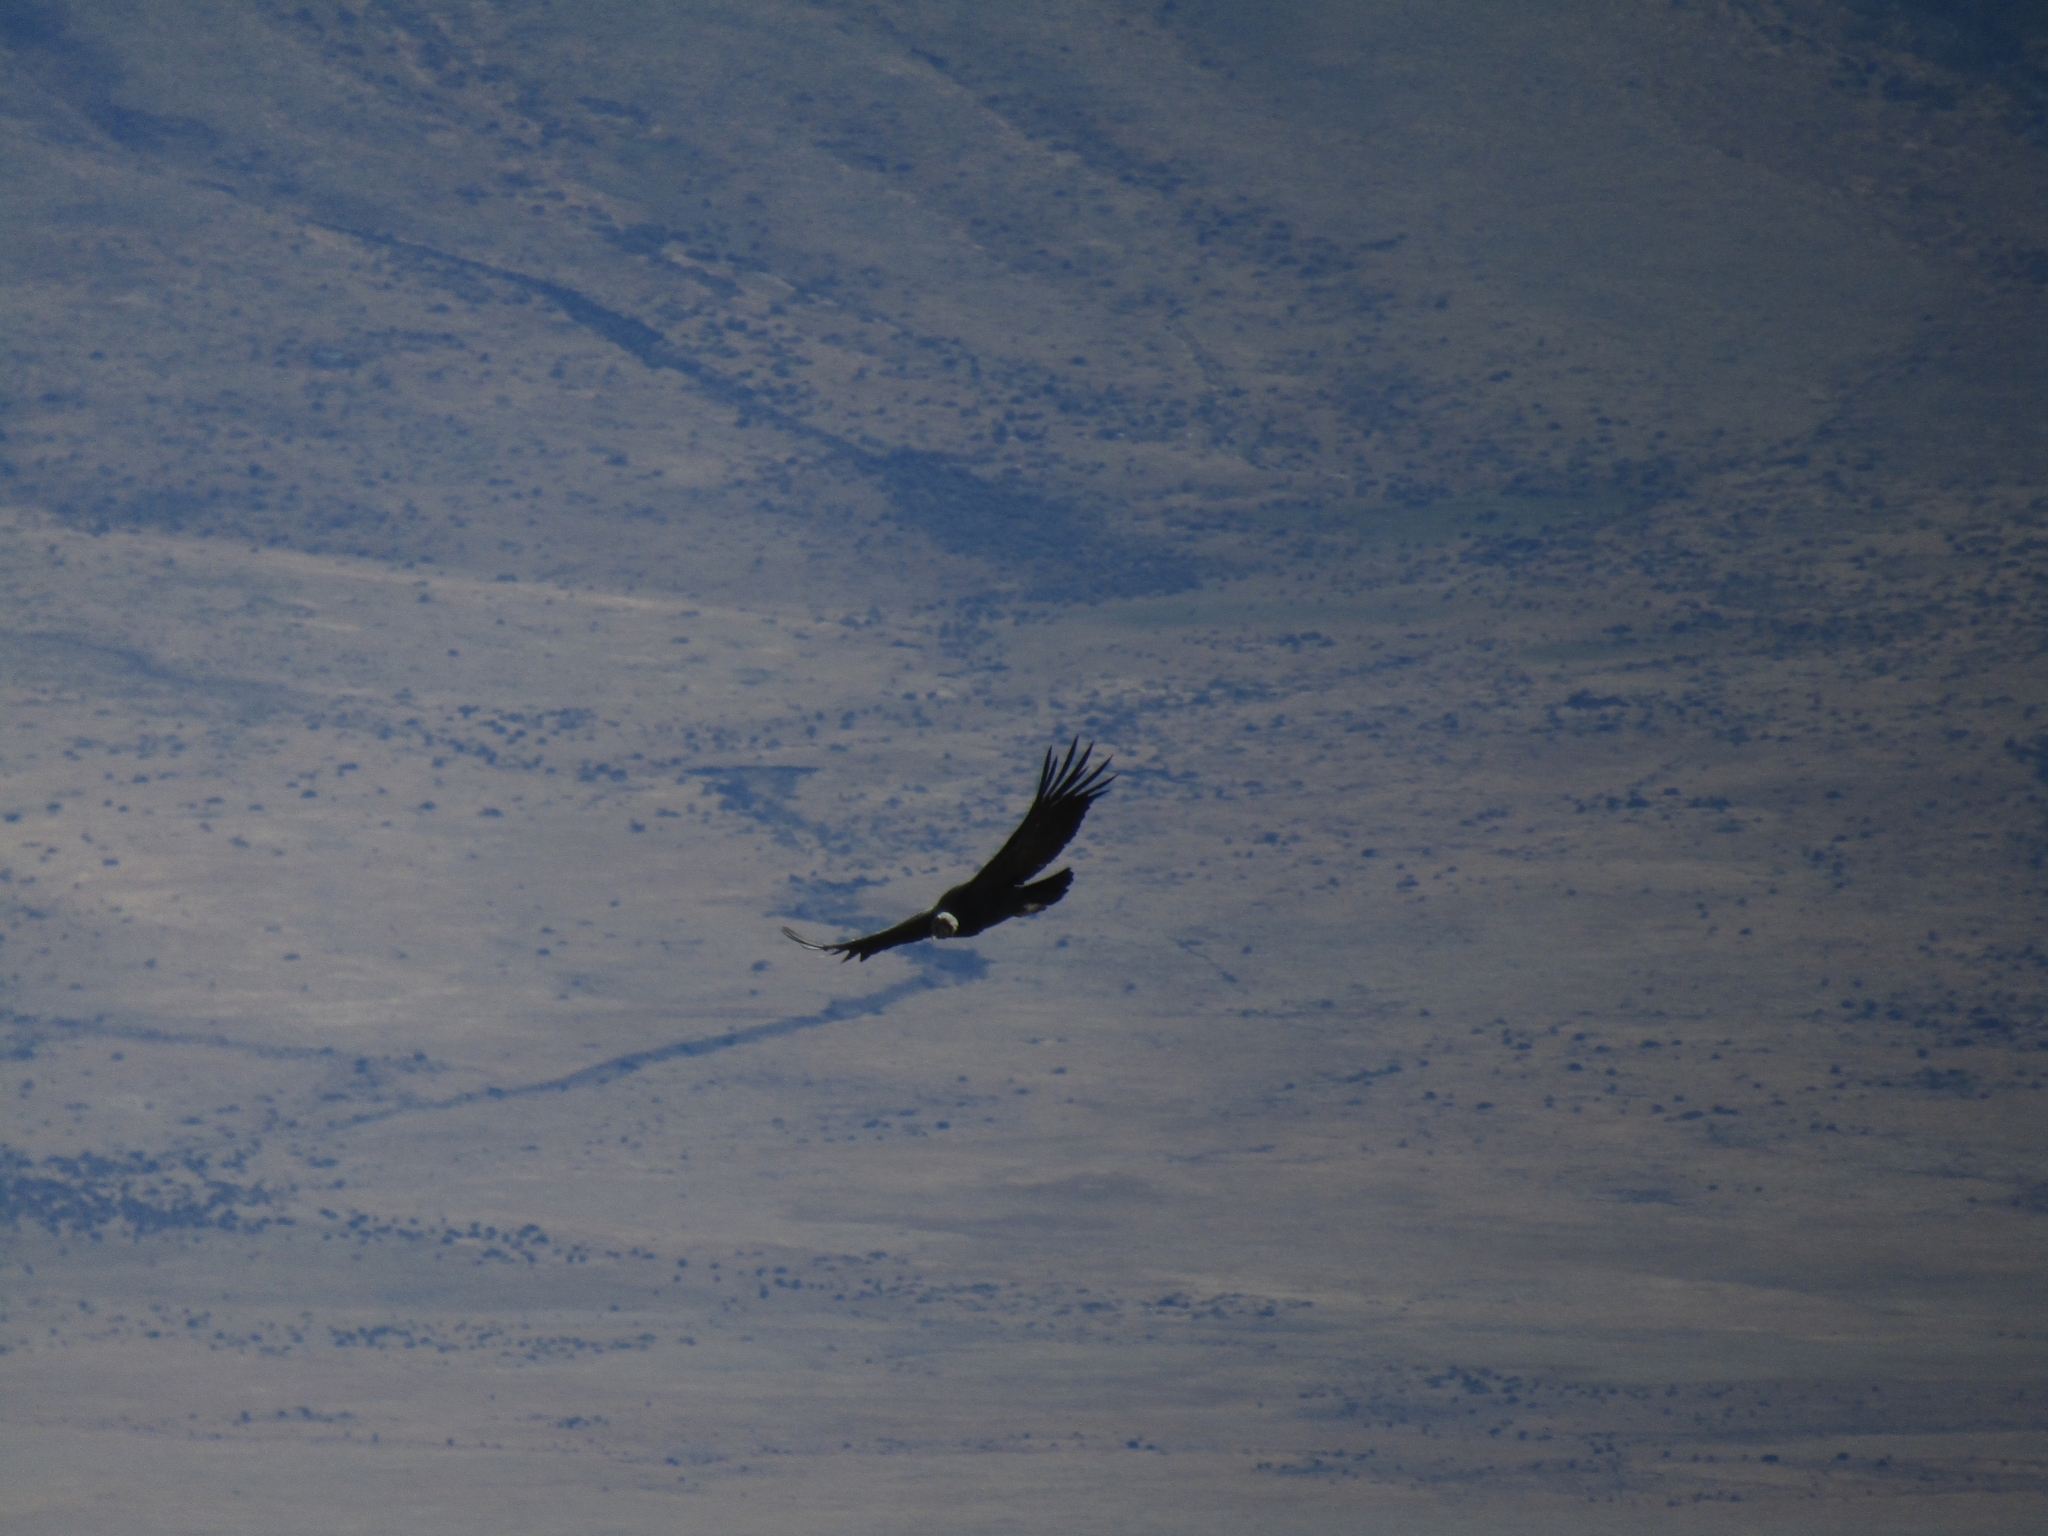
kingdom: Animalia
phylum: Chordata
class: Aves
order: Accipitriformes
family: Cathartidae
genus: Vultur
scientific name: Vultur gryphus
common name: Andean condor
